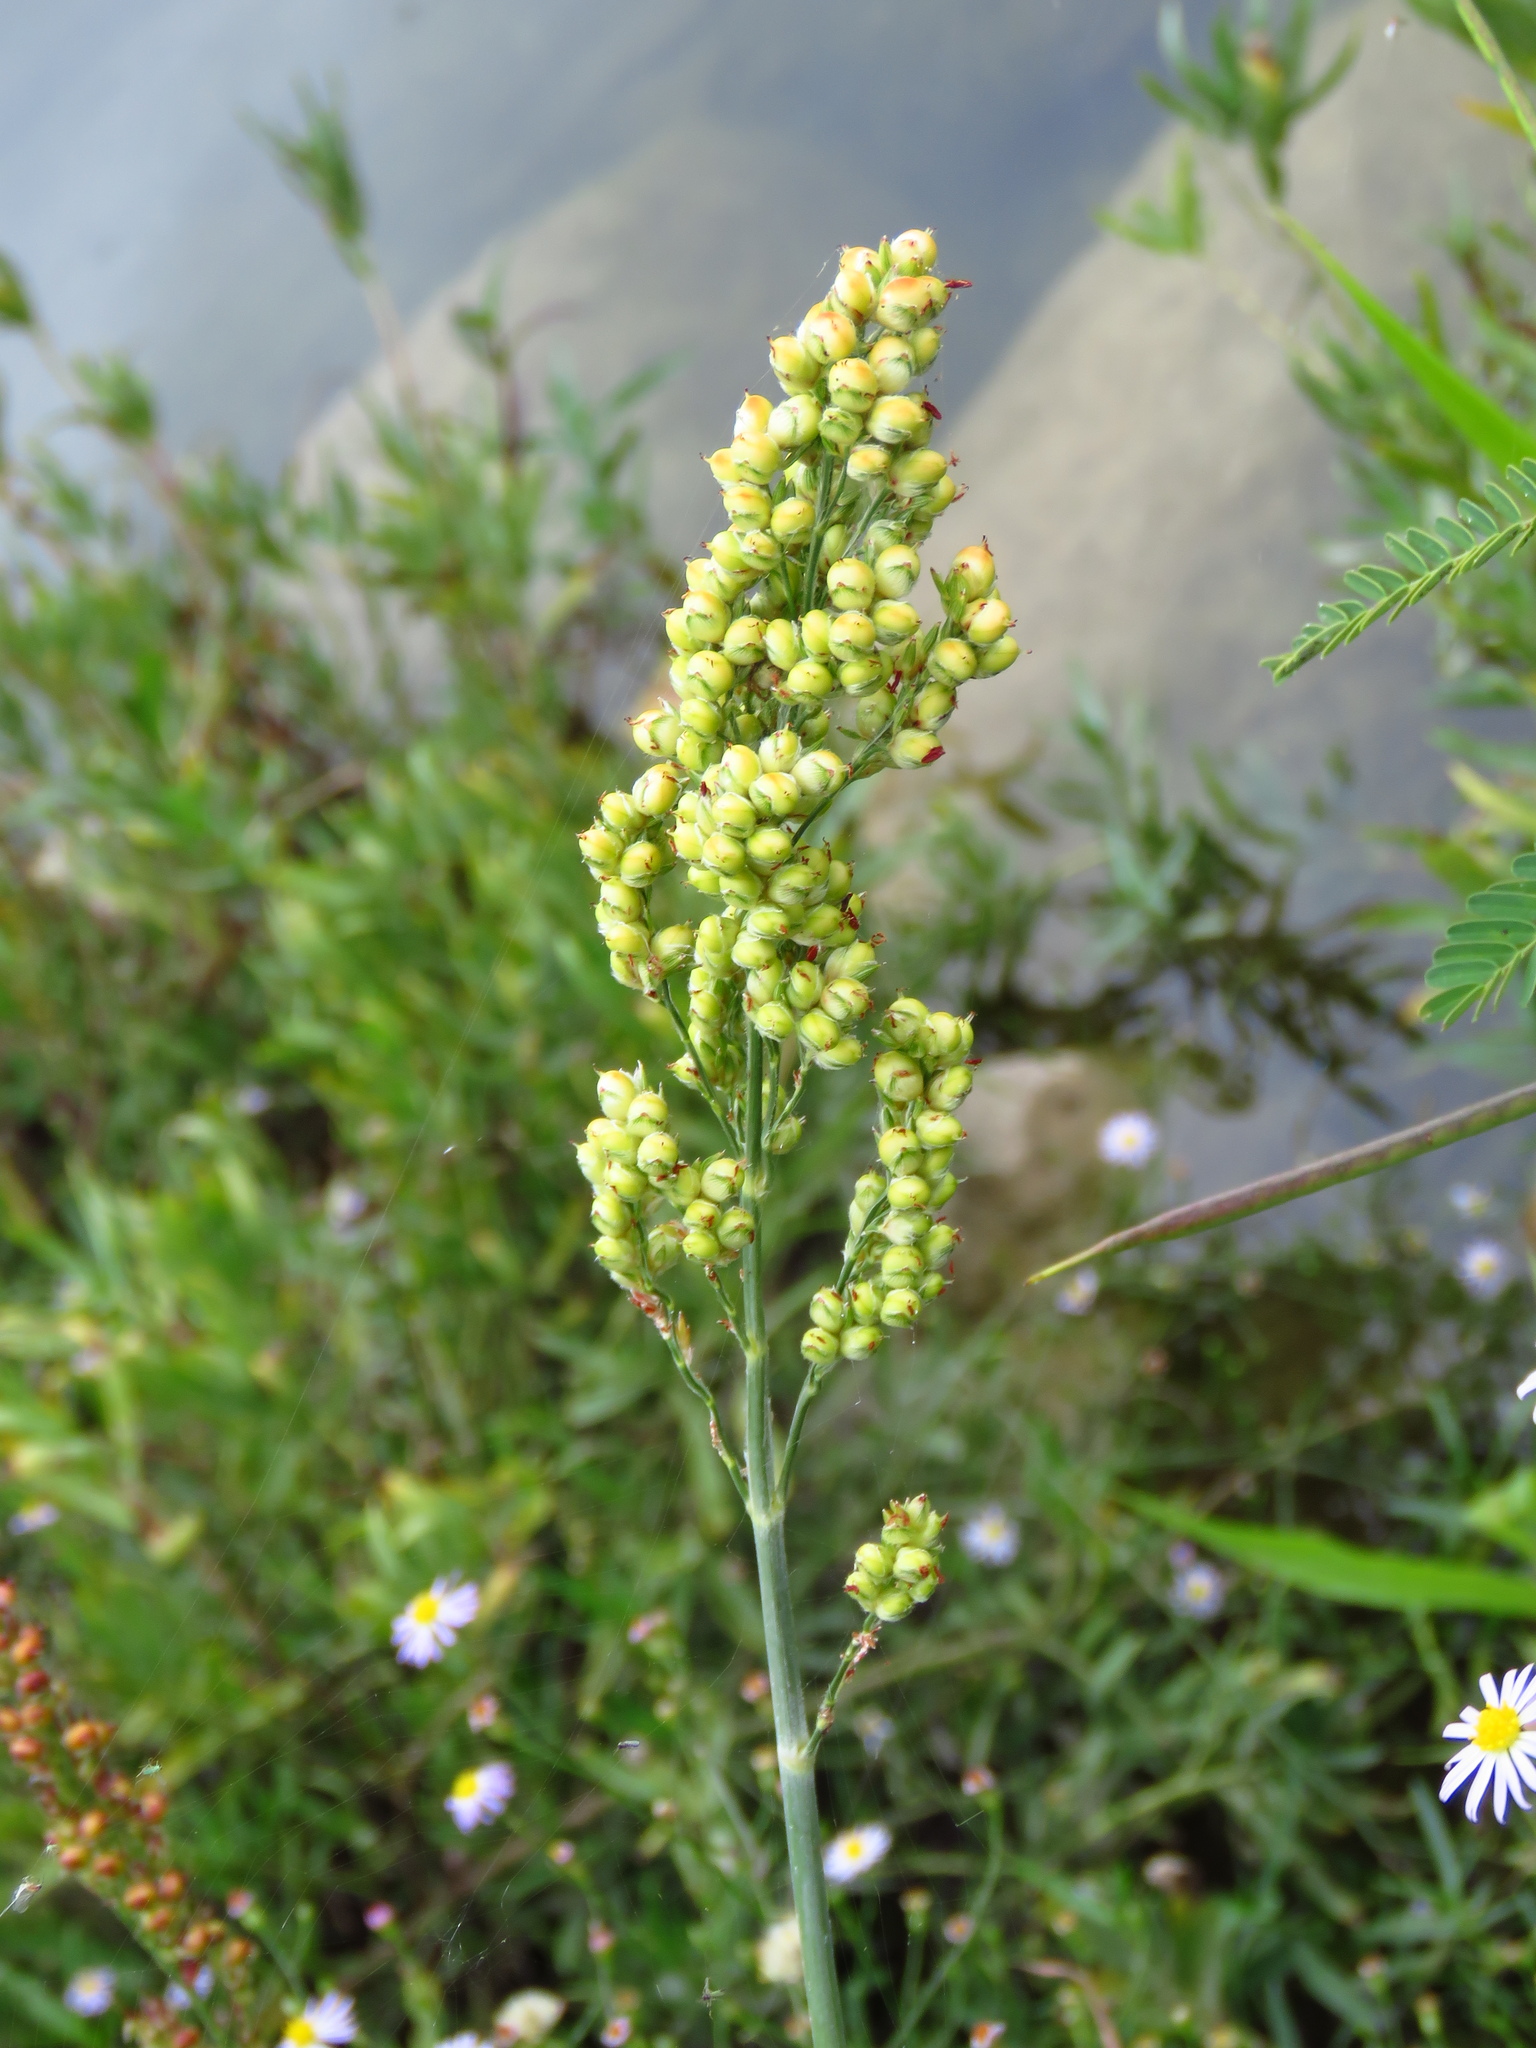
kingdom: Plantae
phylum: Tracheophyta
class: Liliopsida
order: Poales
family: Poaceae
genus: Sorghum
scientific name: Sorghum bicolor
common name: Sorghum
